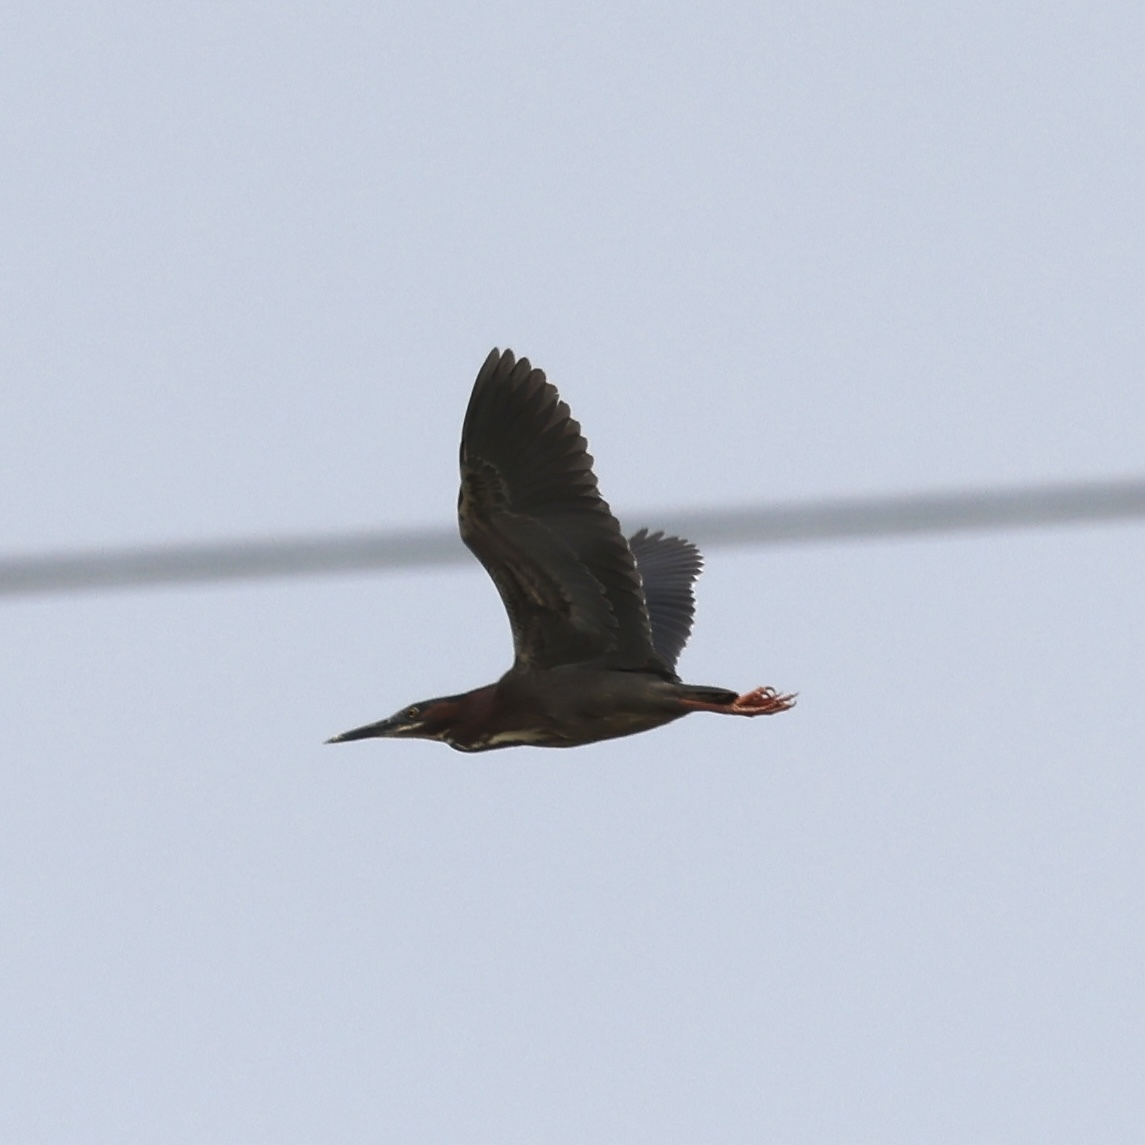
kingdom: Animalia
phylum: Chordata
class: Aves
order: Pelecaniformes
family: Ardeidae
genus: Butorides
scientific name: Butorides virescens
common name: Green heron
